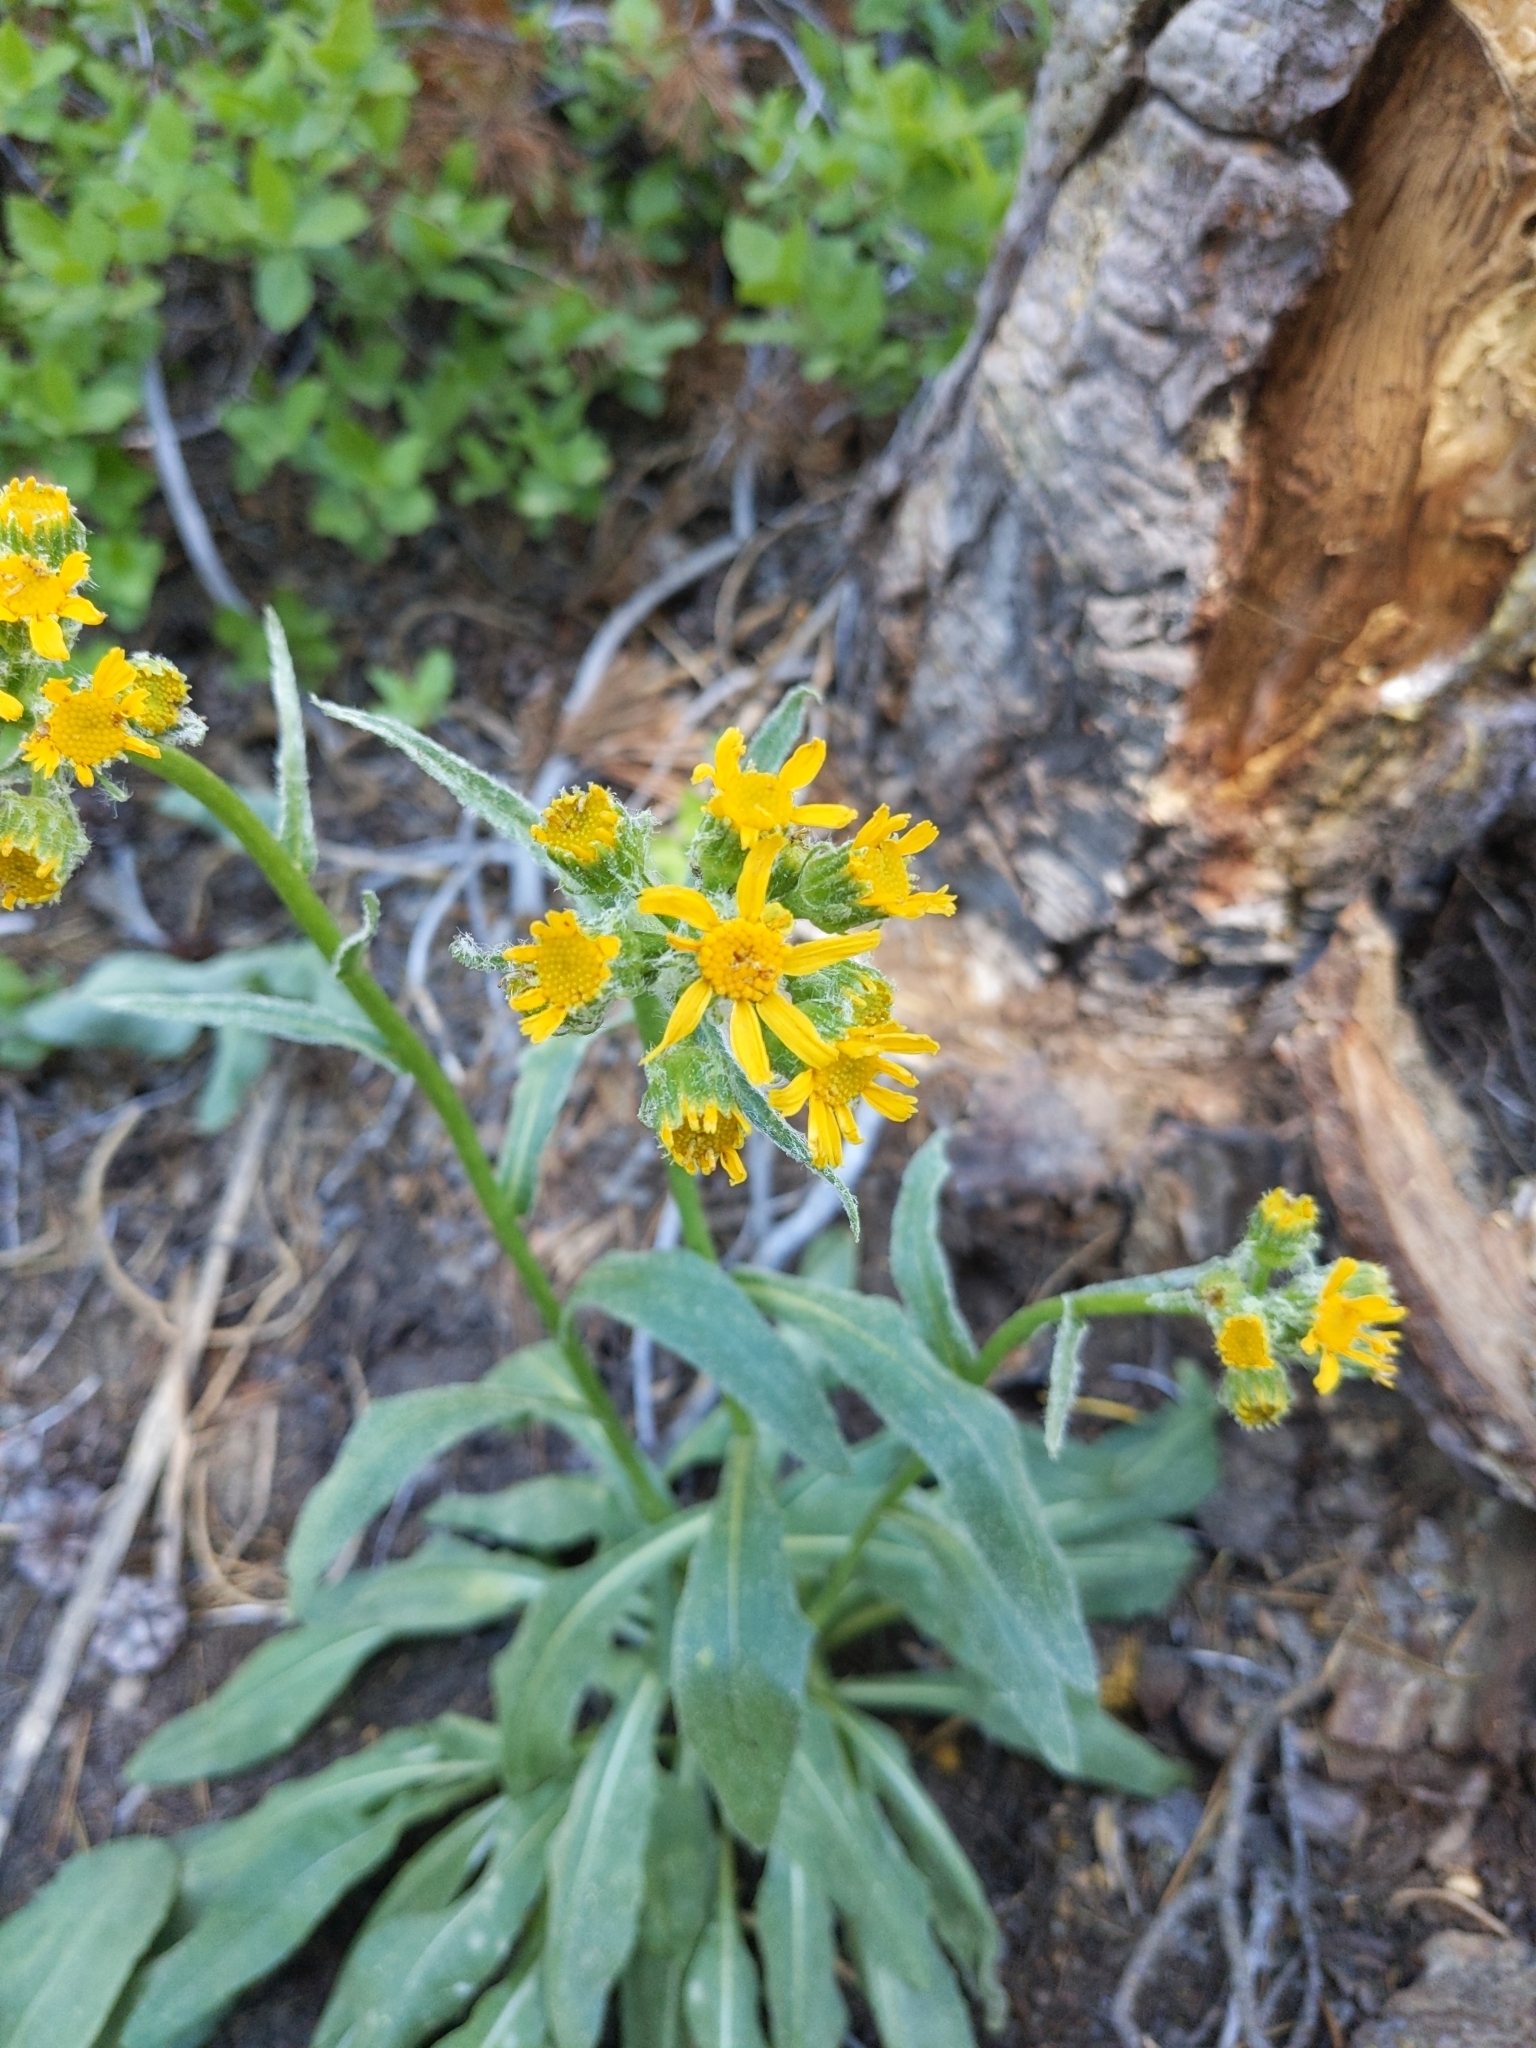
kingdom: Plantae
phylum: Tracheophyta
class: Magnoliopsida
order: Asterales
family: Asteraceae
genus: Senecio
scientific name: Senecio integerrimus
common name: Gaugeplant
